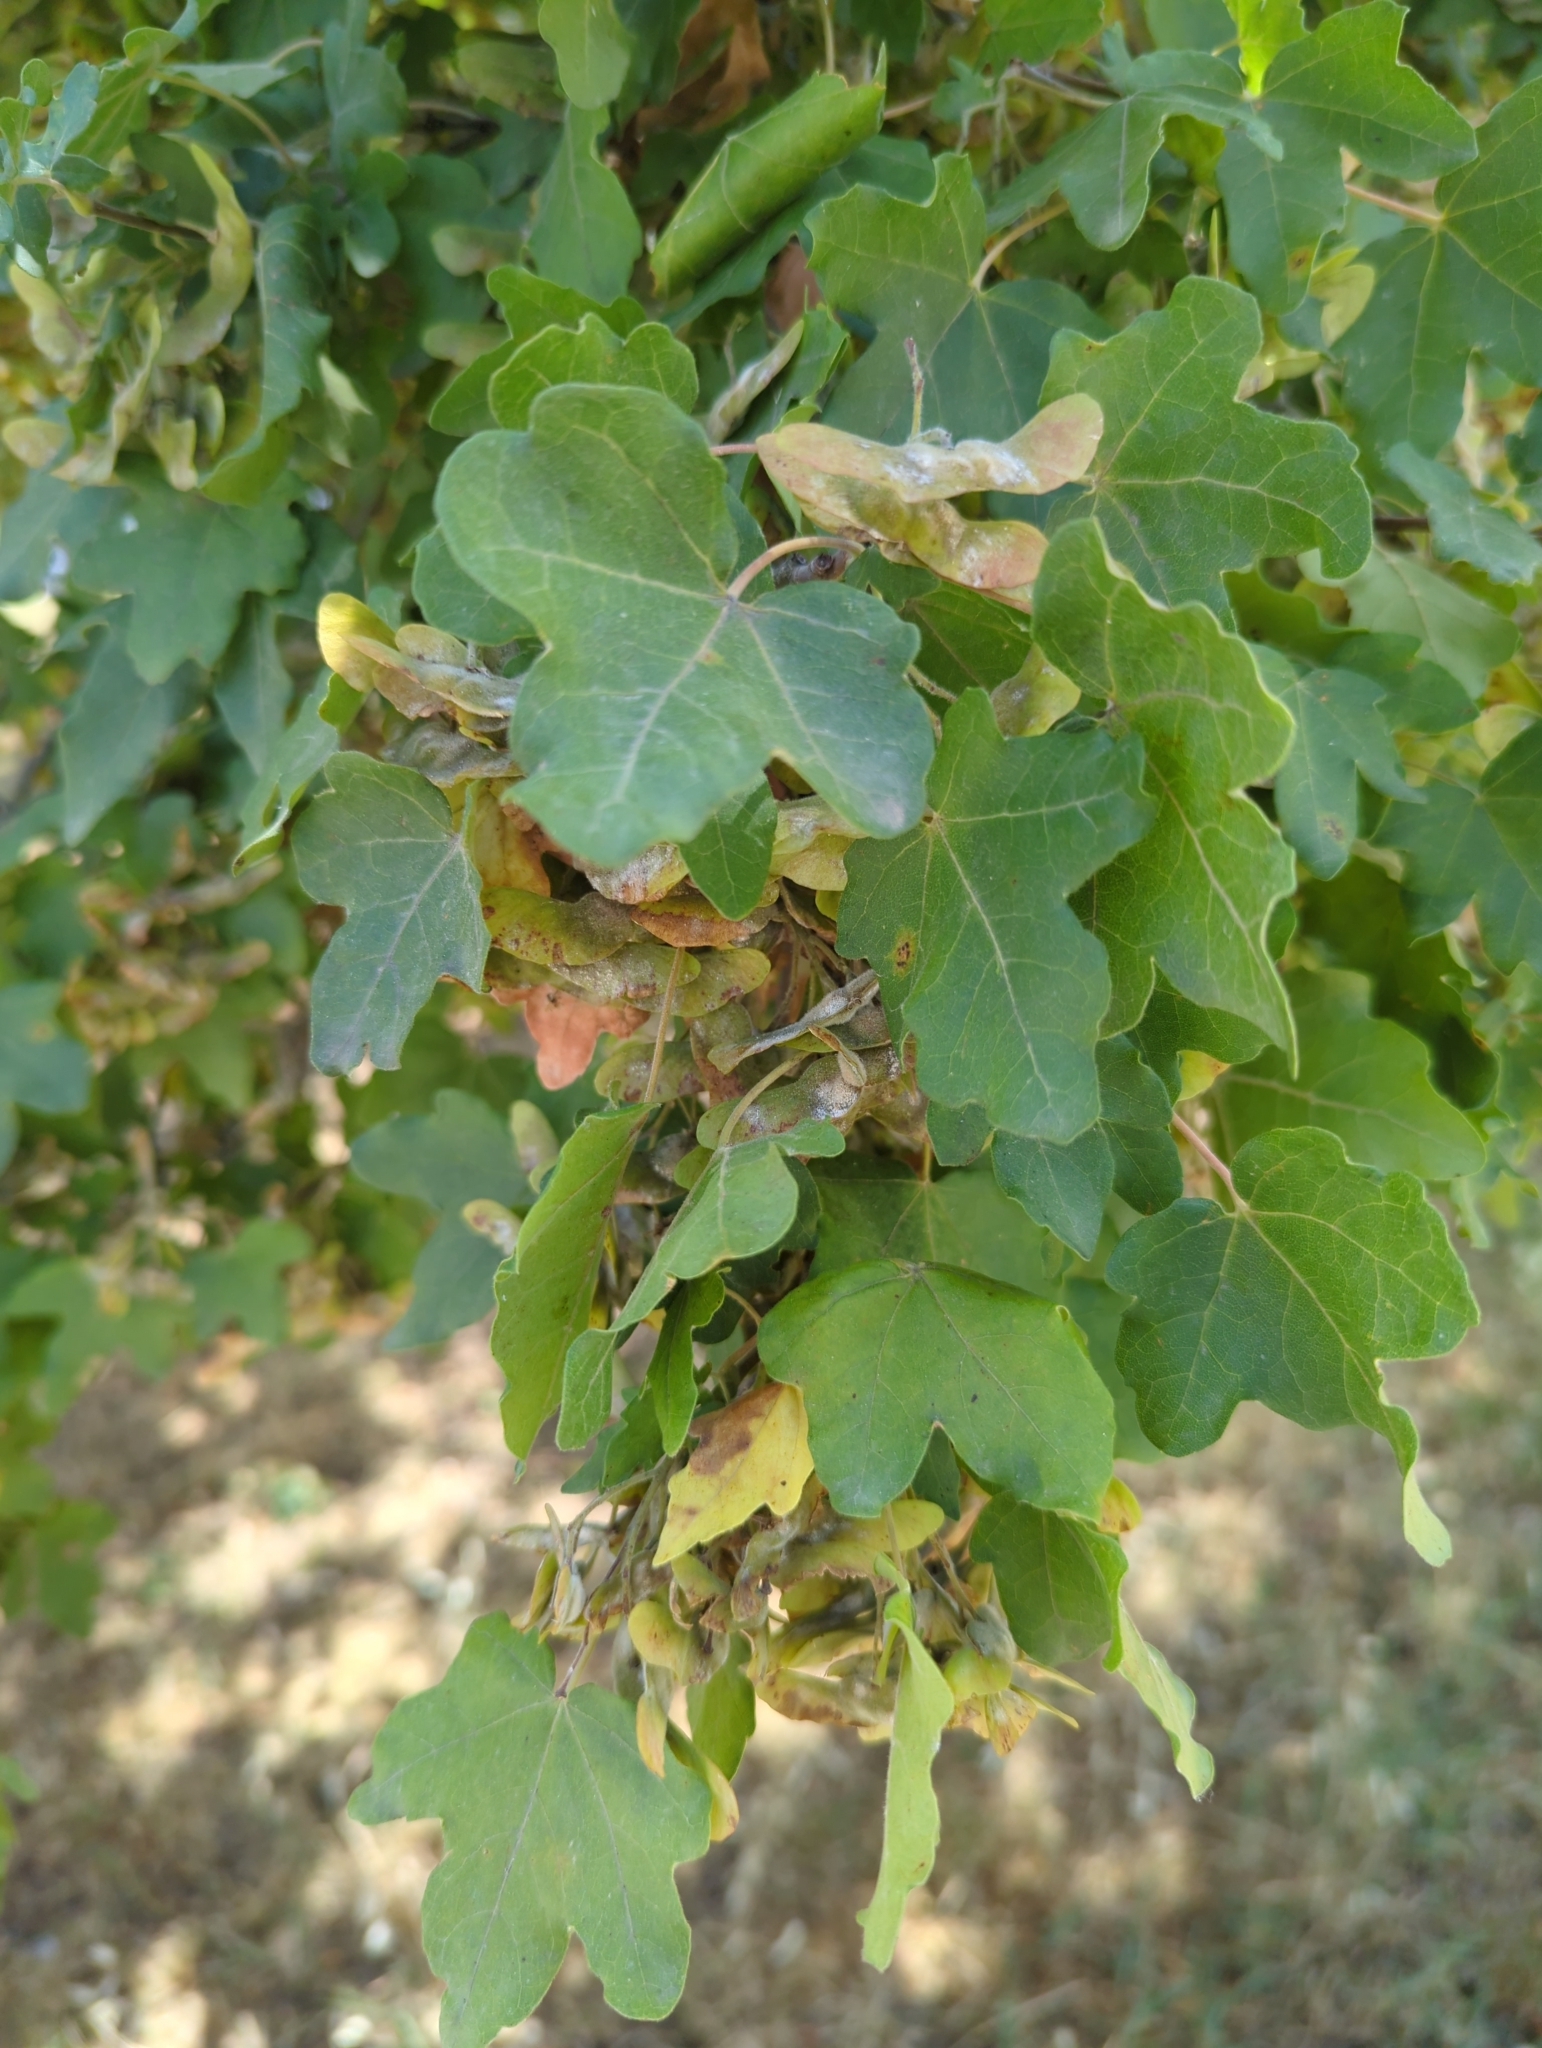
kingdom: Plantae
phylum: Tracheophyta
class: Magnoliopsida
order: Sapindales
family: Sapindaceae
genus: Acer
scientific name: Acer monspessulanum
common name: Montpellier maple
